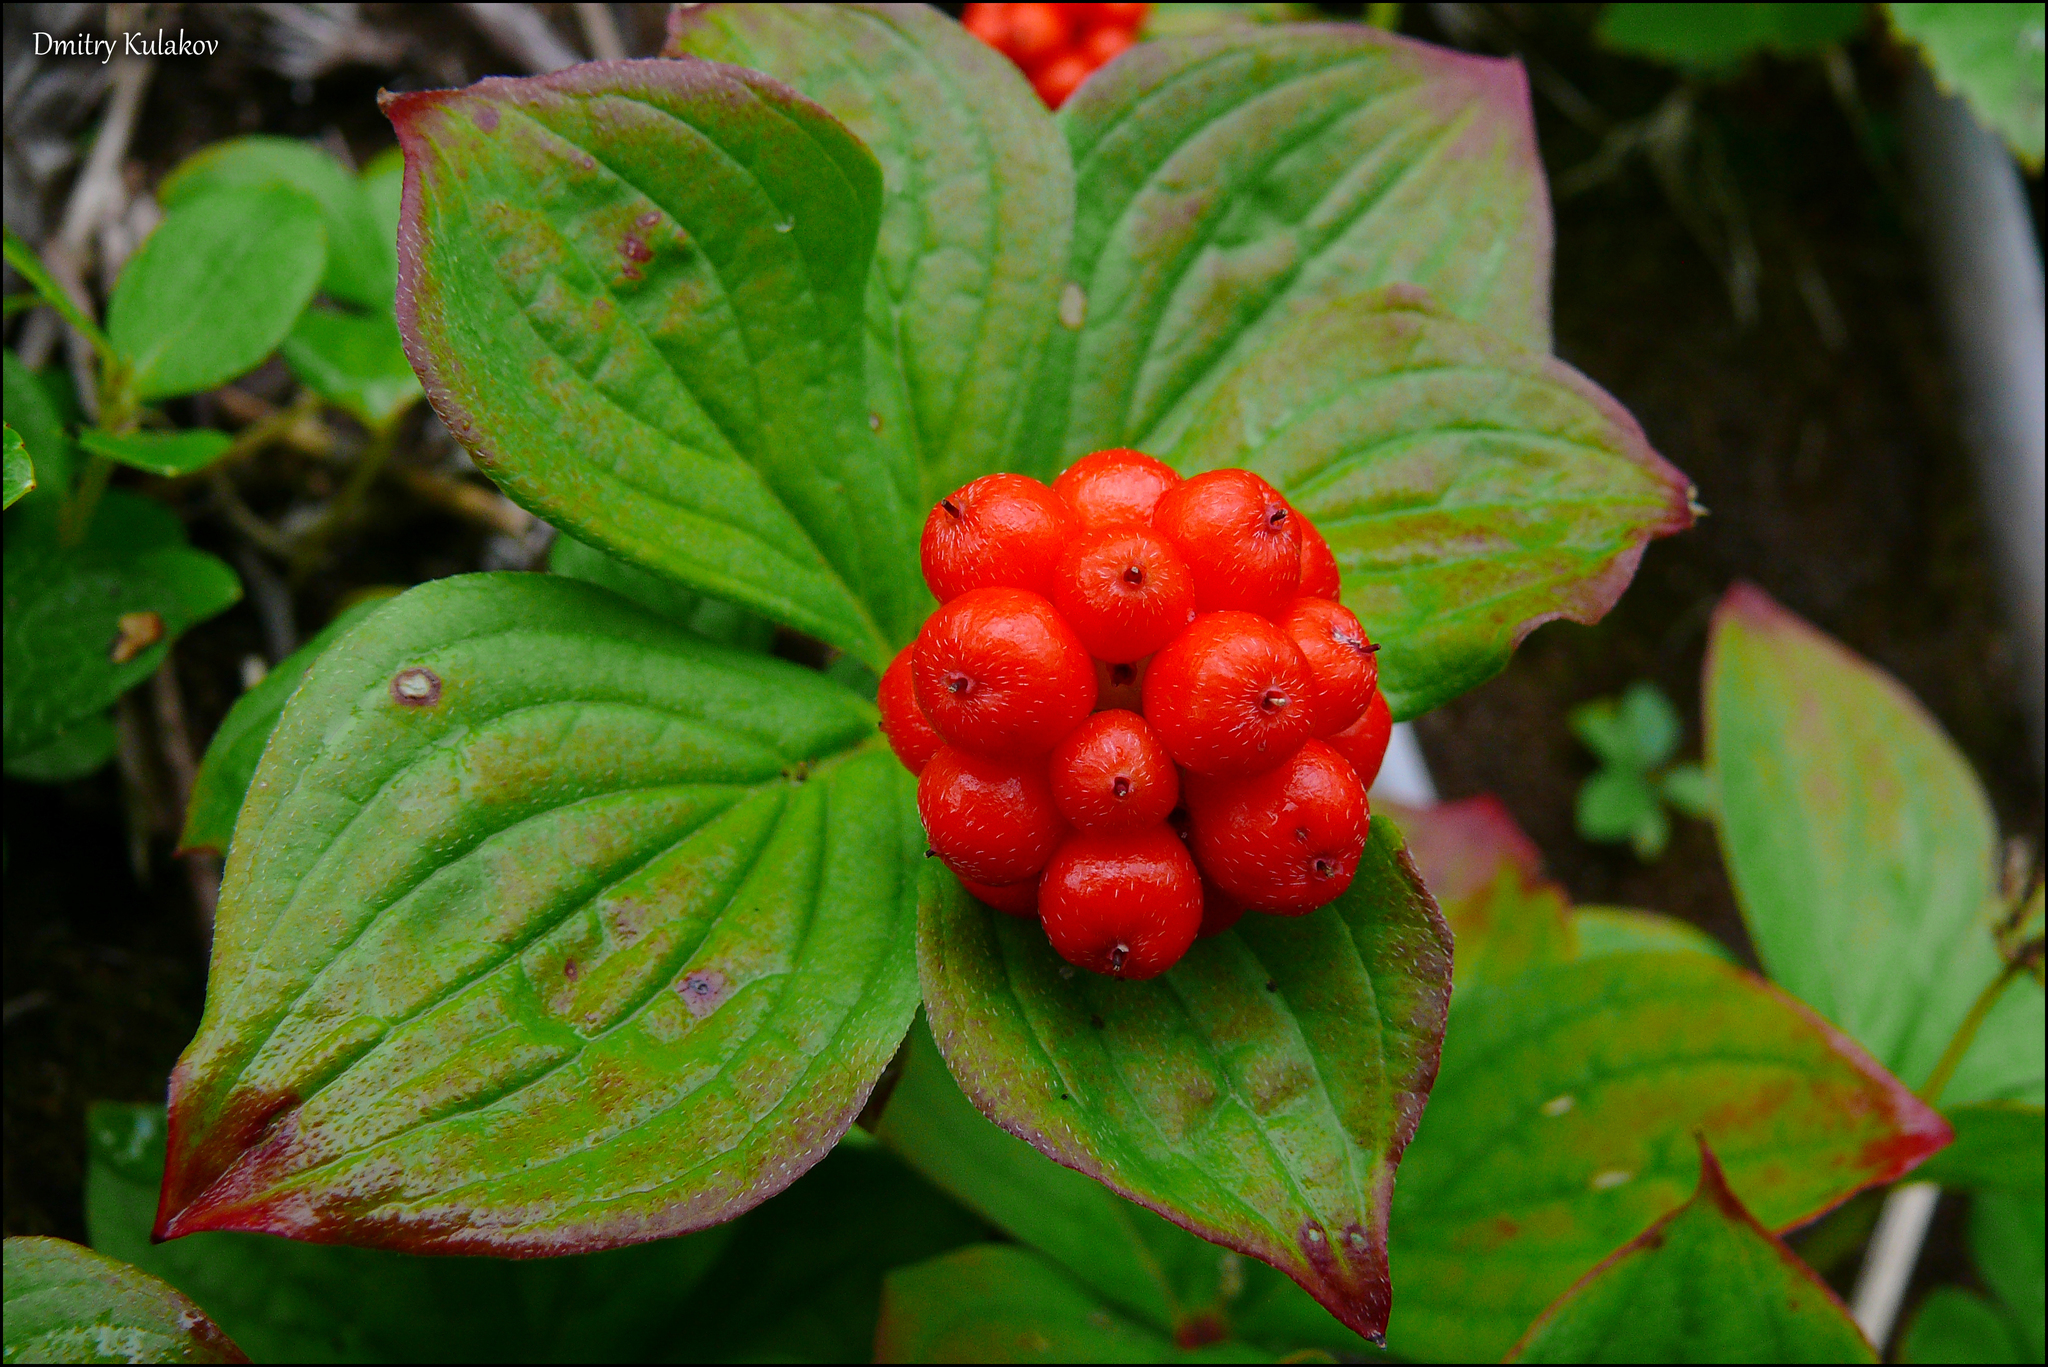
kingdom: Plantae
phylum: Tracheophyta
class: Magnoliopsida
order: Cornales
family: Cornaceae
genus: Cornus
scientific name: Cornus canadensis
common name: Creeping dogwood
